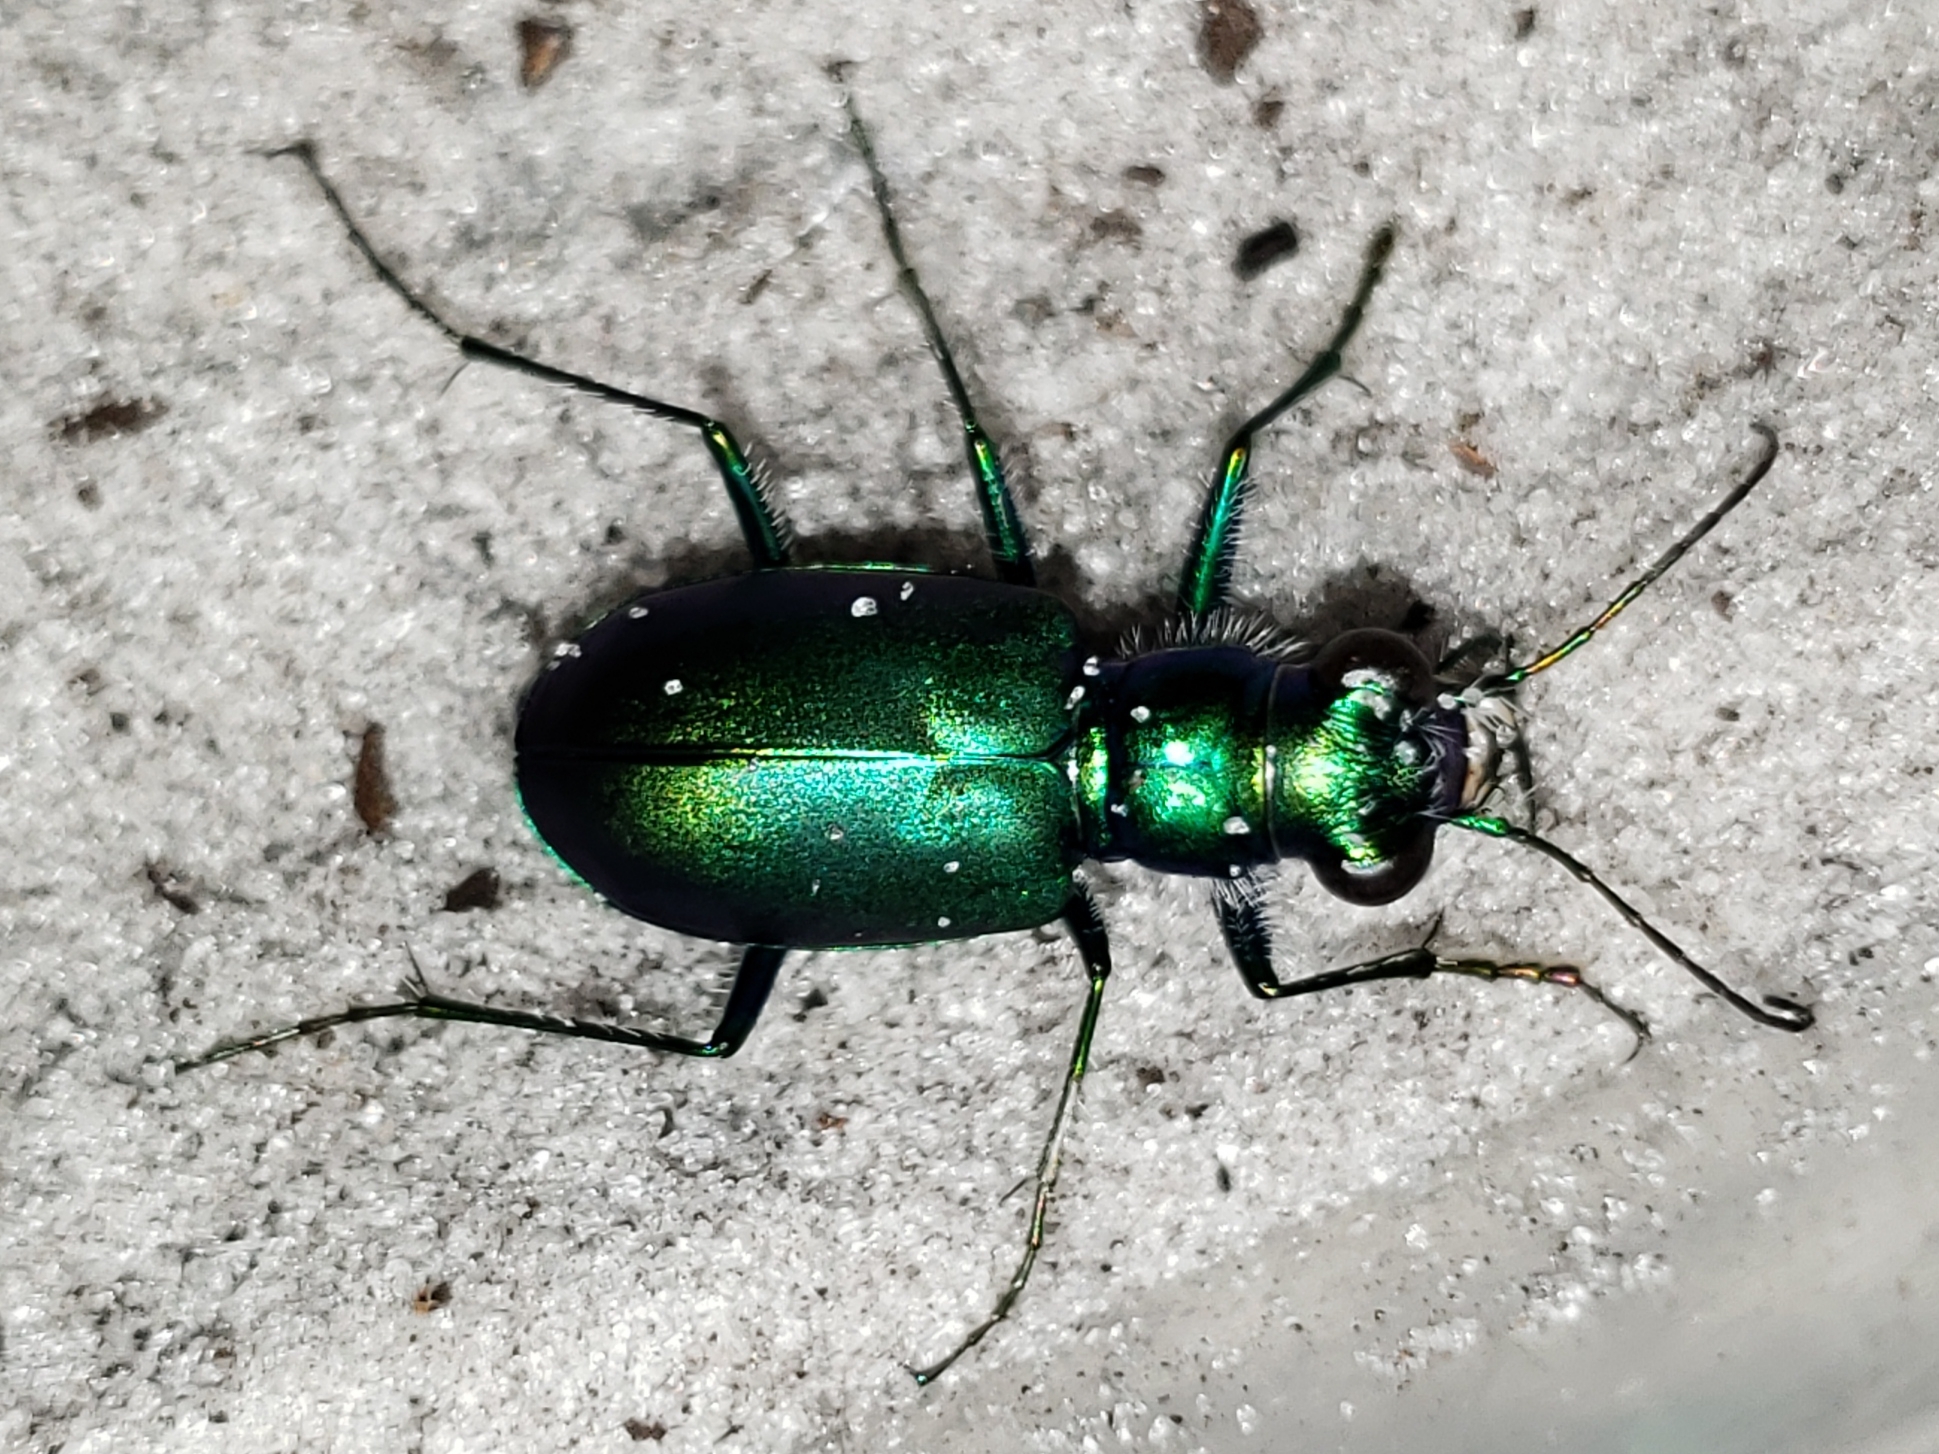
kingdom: Animalia
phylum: Arthropoda
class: Insecta
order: Coleoptera
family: Carabidae
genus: Cicindela
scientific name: Cicindela scutellaris
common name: Festive tiger beetle
